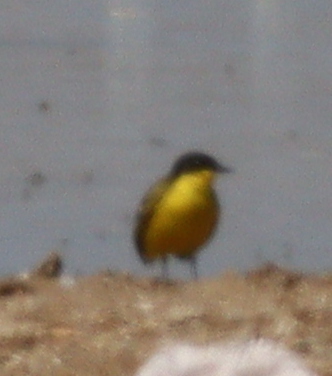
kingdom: Animalia
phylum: Chordata
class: Aves
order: Passeriformes
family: Motacillidae
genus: Motacilla
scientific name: Motacilla flava
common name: Western yellow wagtail
